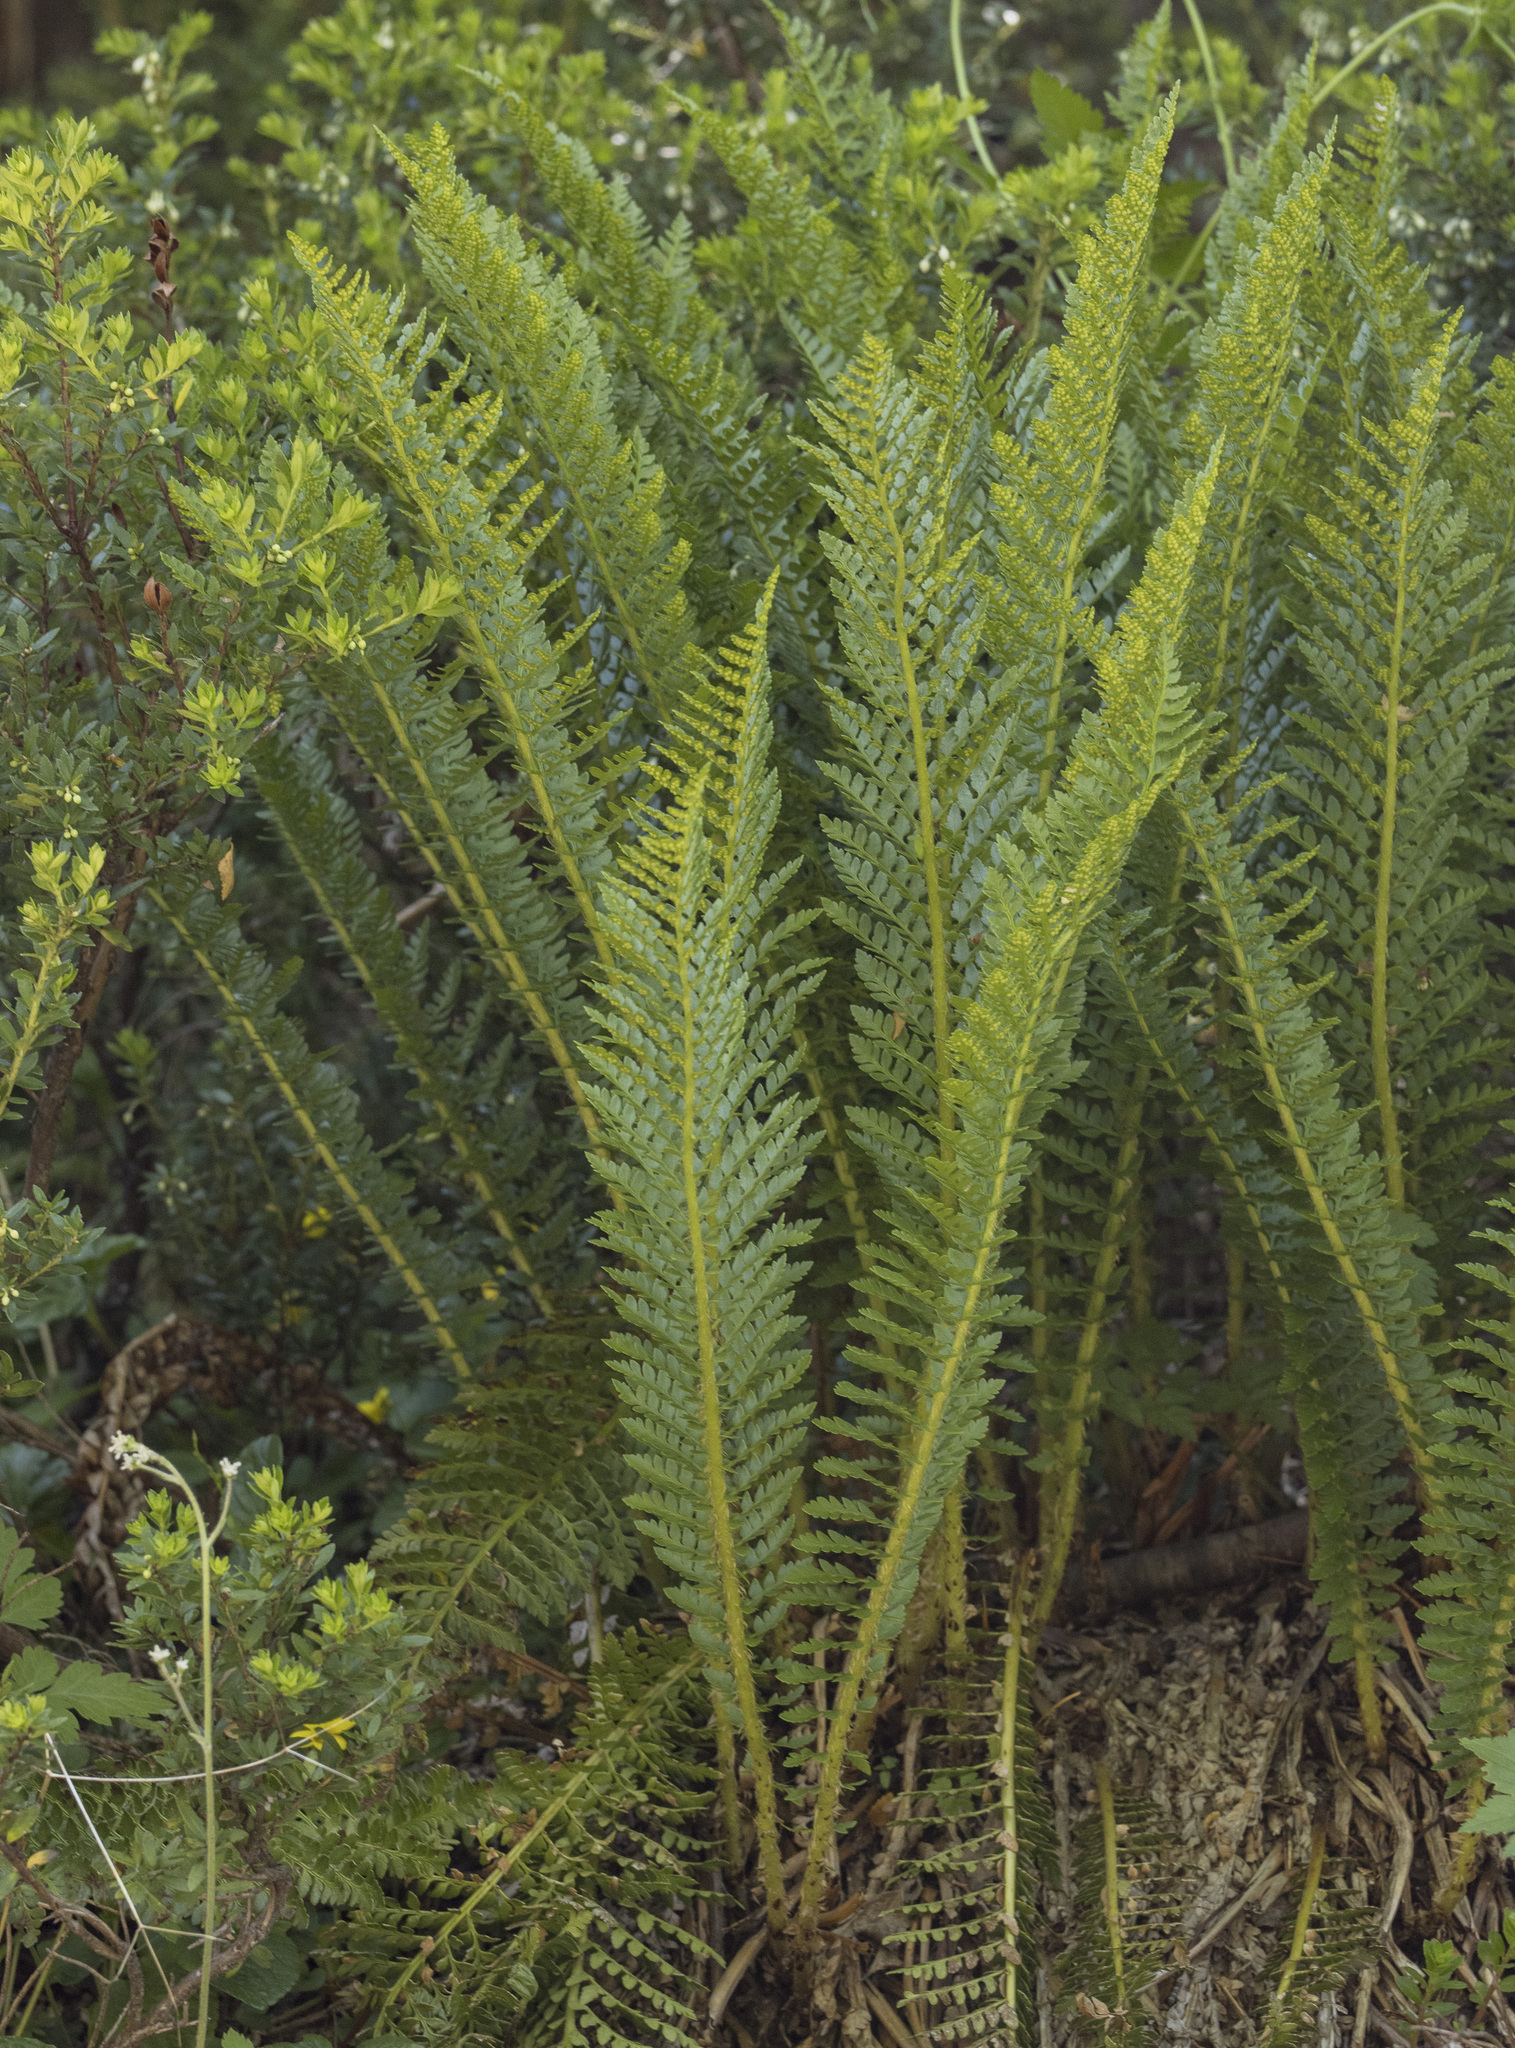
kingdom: Plantae
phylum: Tracheophyta
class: Polypodiopsida
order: Polypodiales
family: Dryopteridaceae
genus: Polystichum
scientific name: Polystichum plicatum
